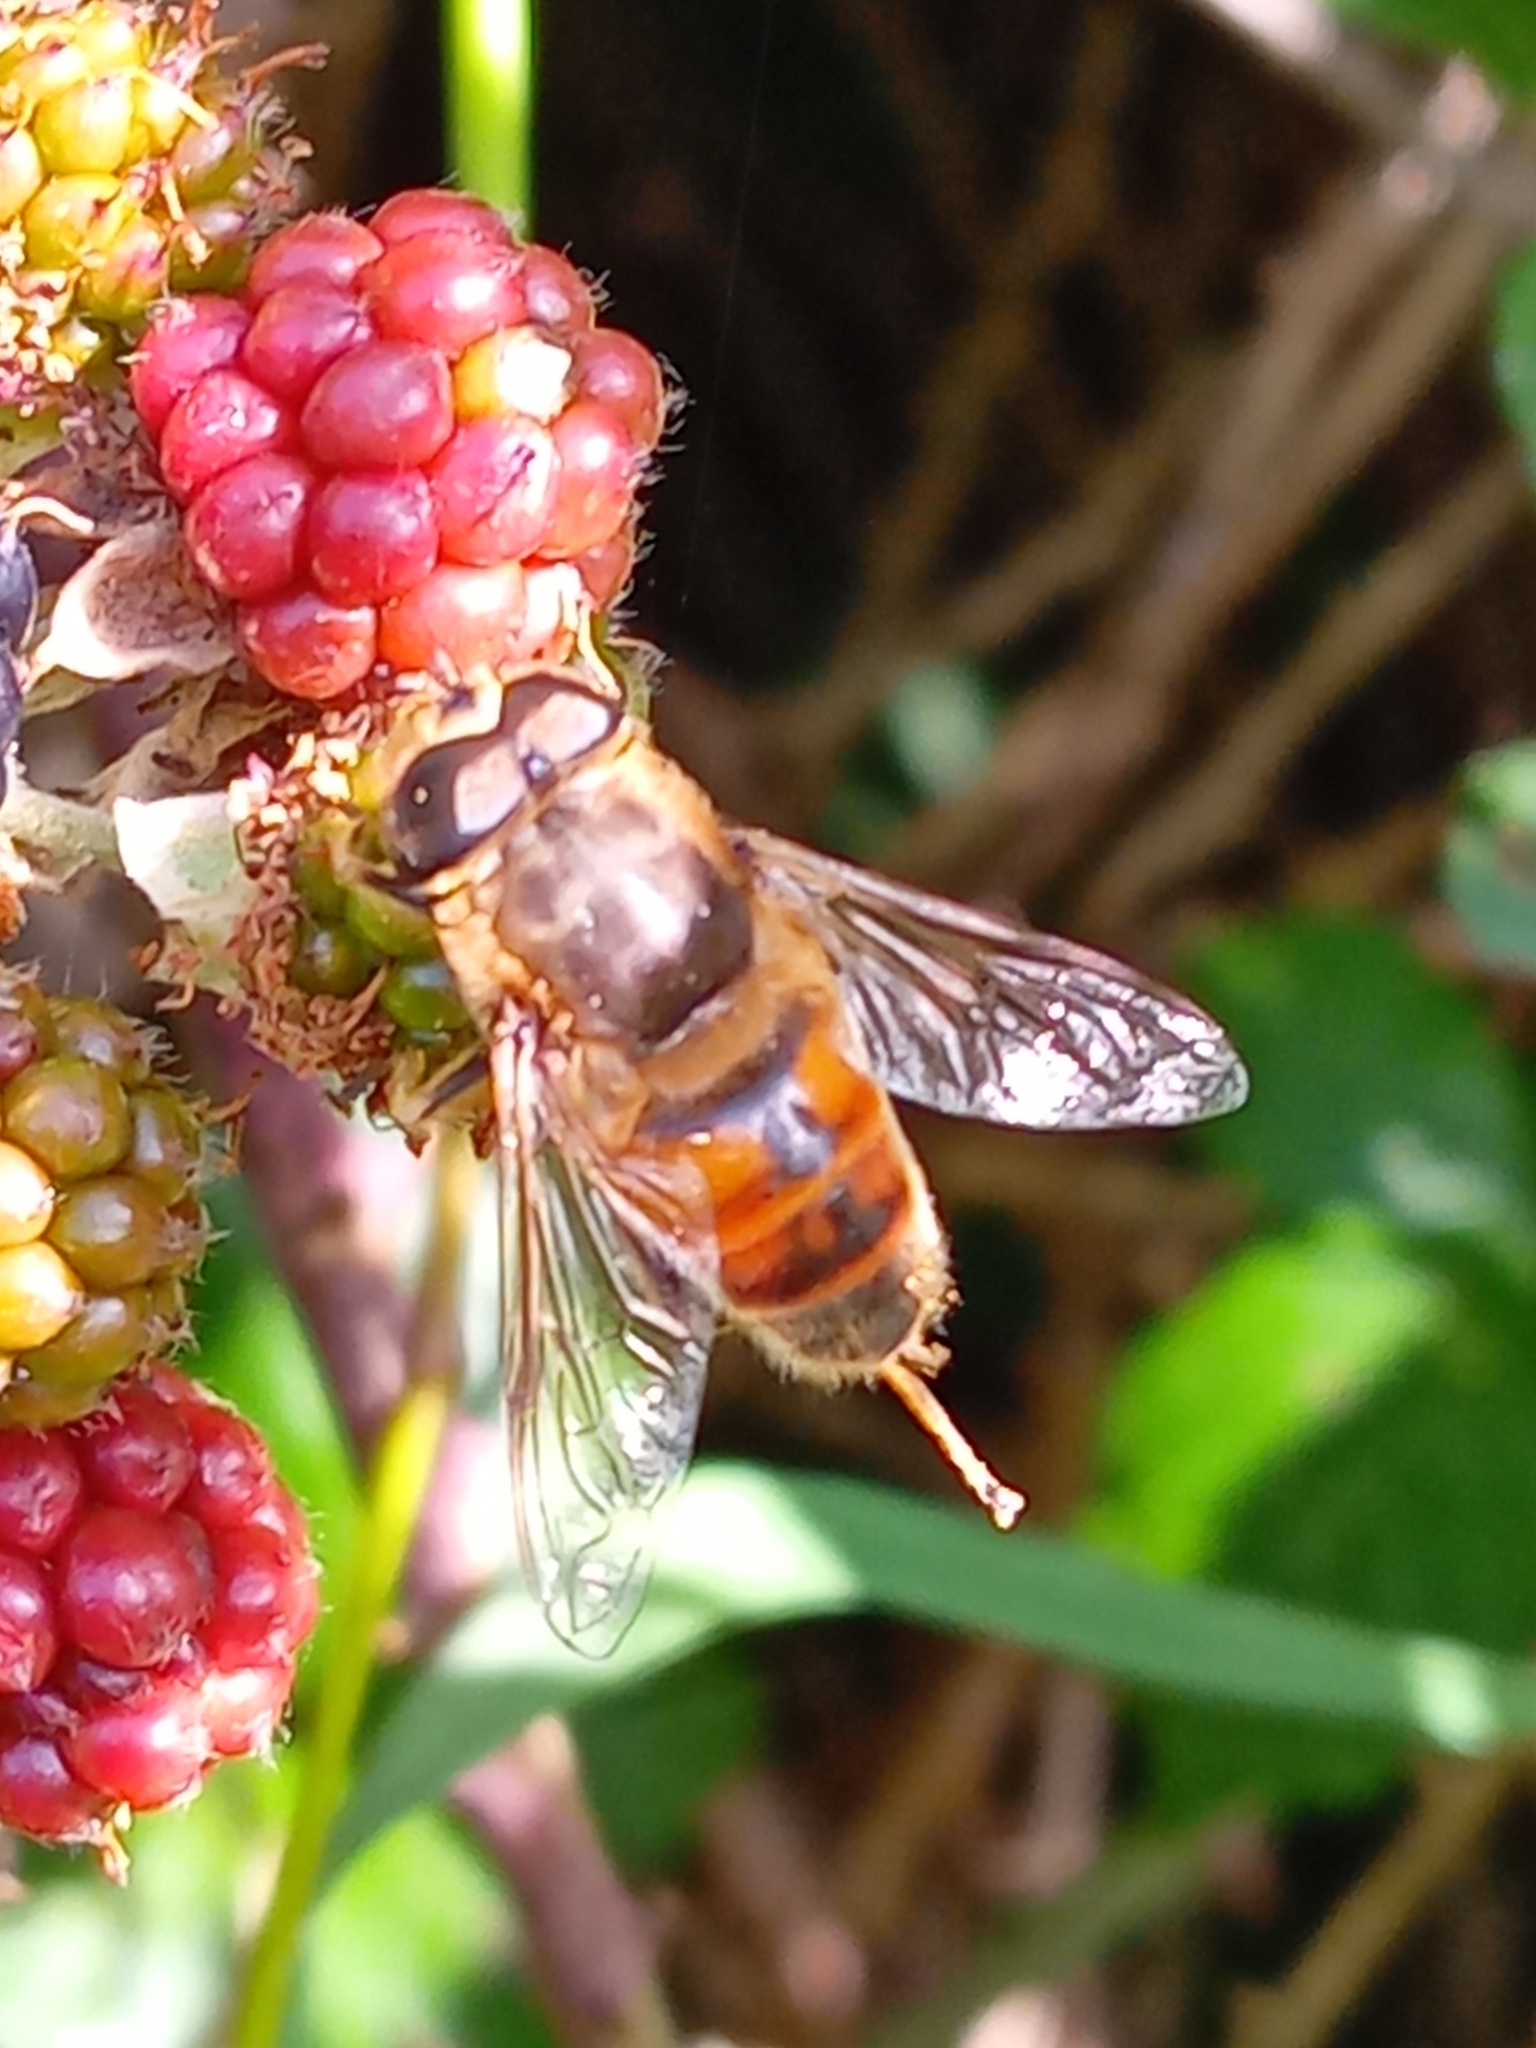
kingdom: Animalia
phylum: Arthropoda
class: Insecta
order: Diptera
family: Syrphidae
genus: Eristalis
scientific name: Eristalis tenax
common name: Drone fly
